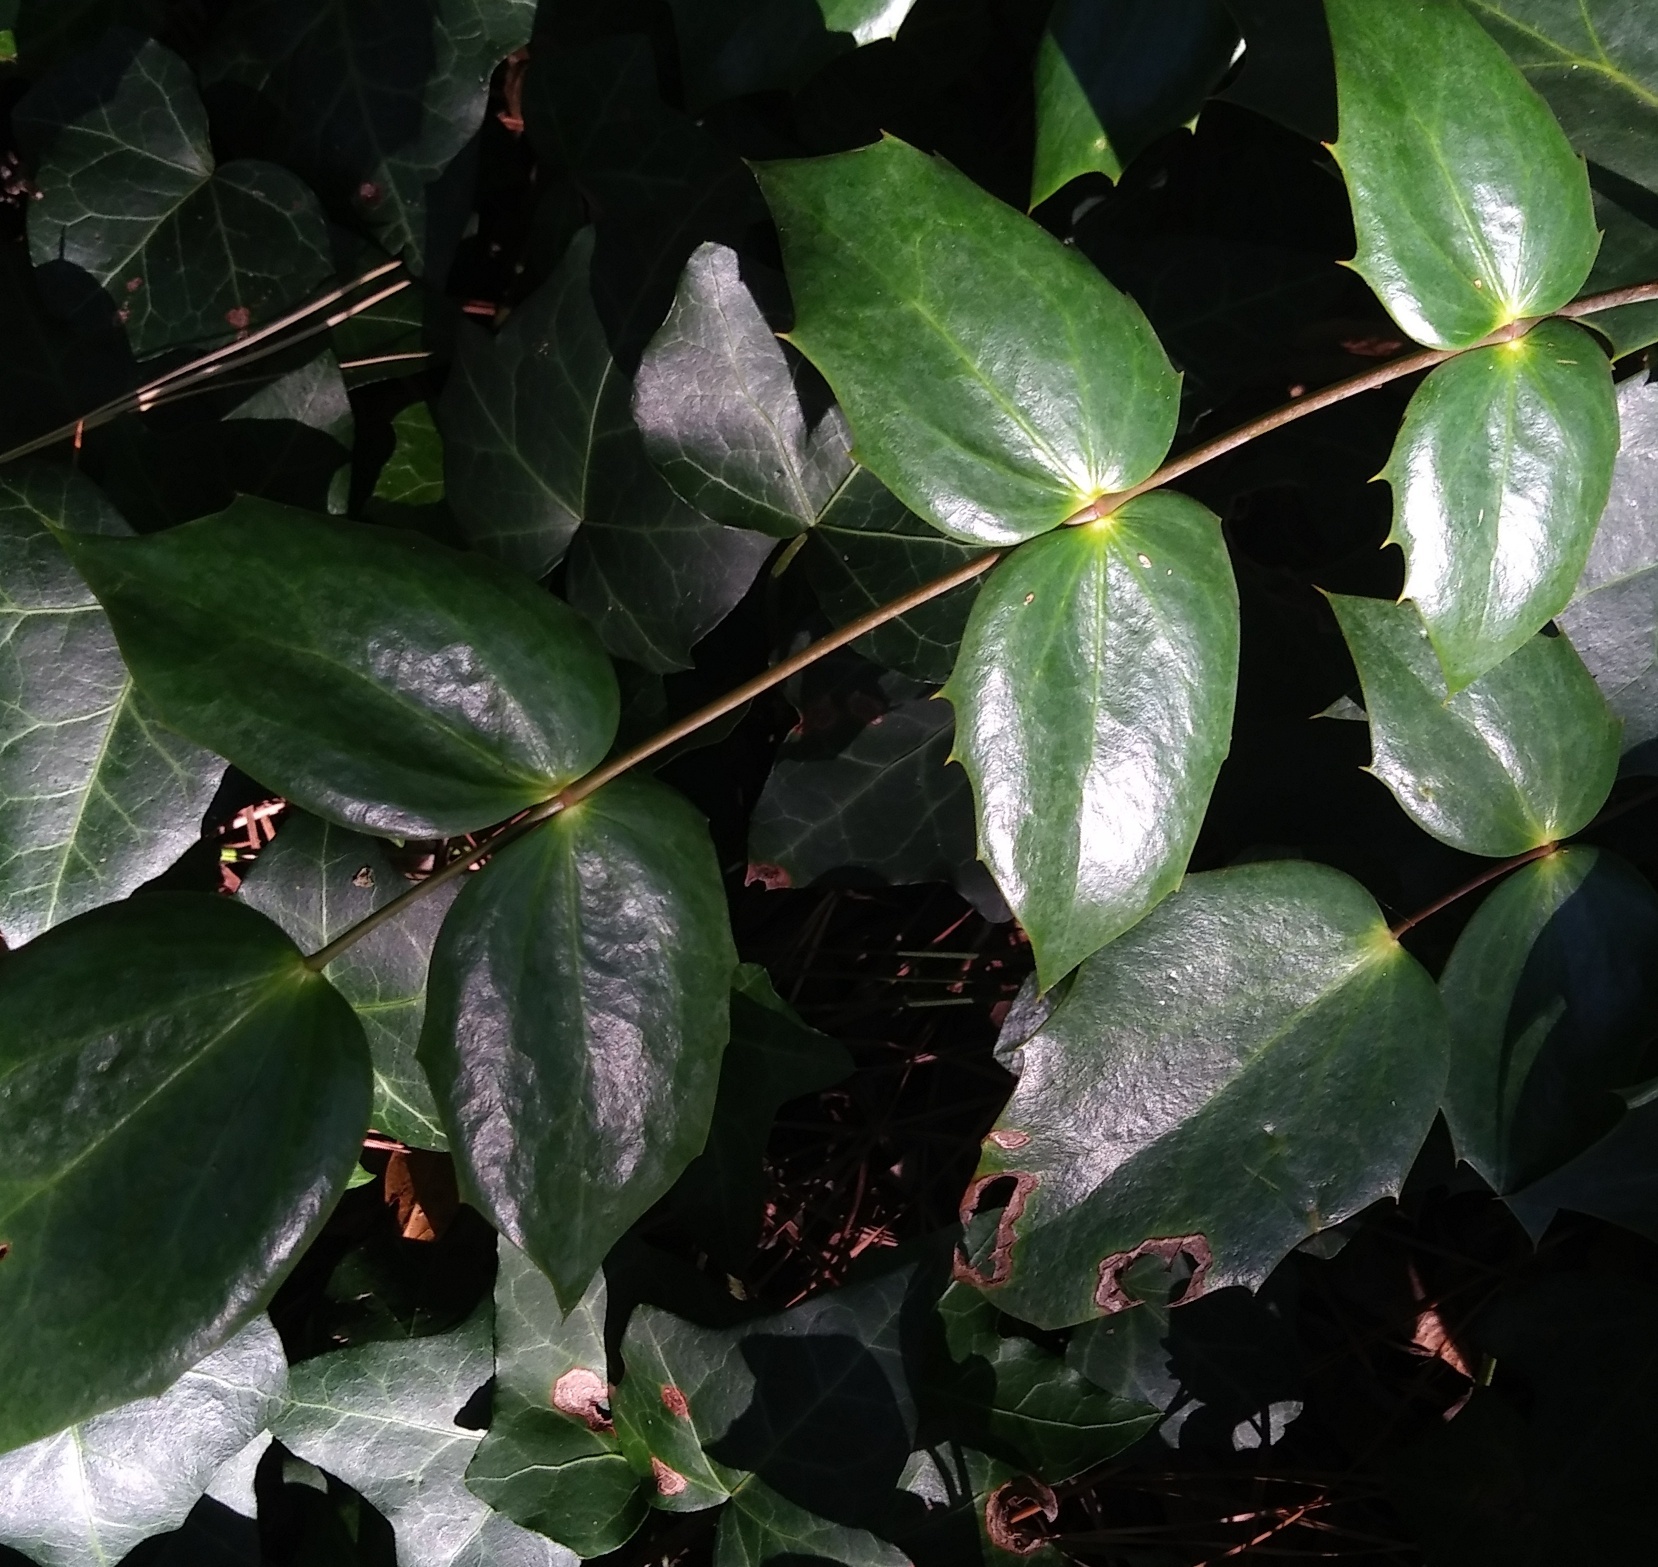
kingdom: Plantae
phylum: Tracheophyta
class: Magnoliopsida
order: Ranunculales
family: Berberidaceae
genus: Mahonia
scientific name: Mahonia bealei
